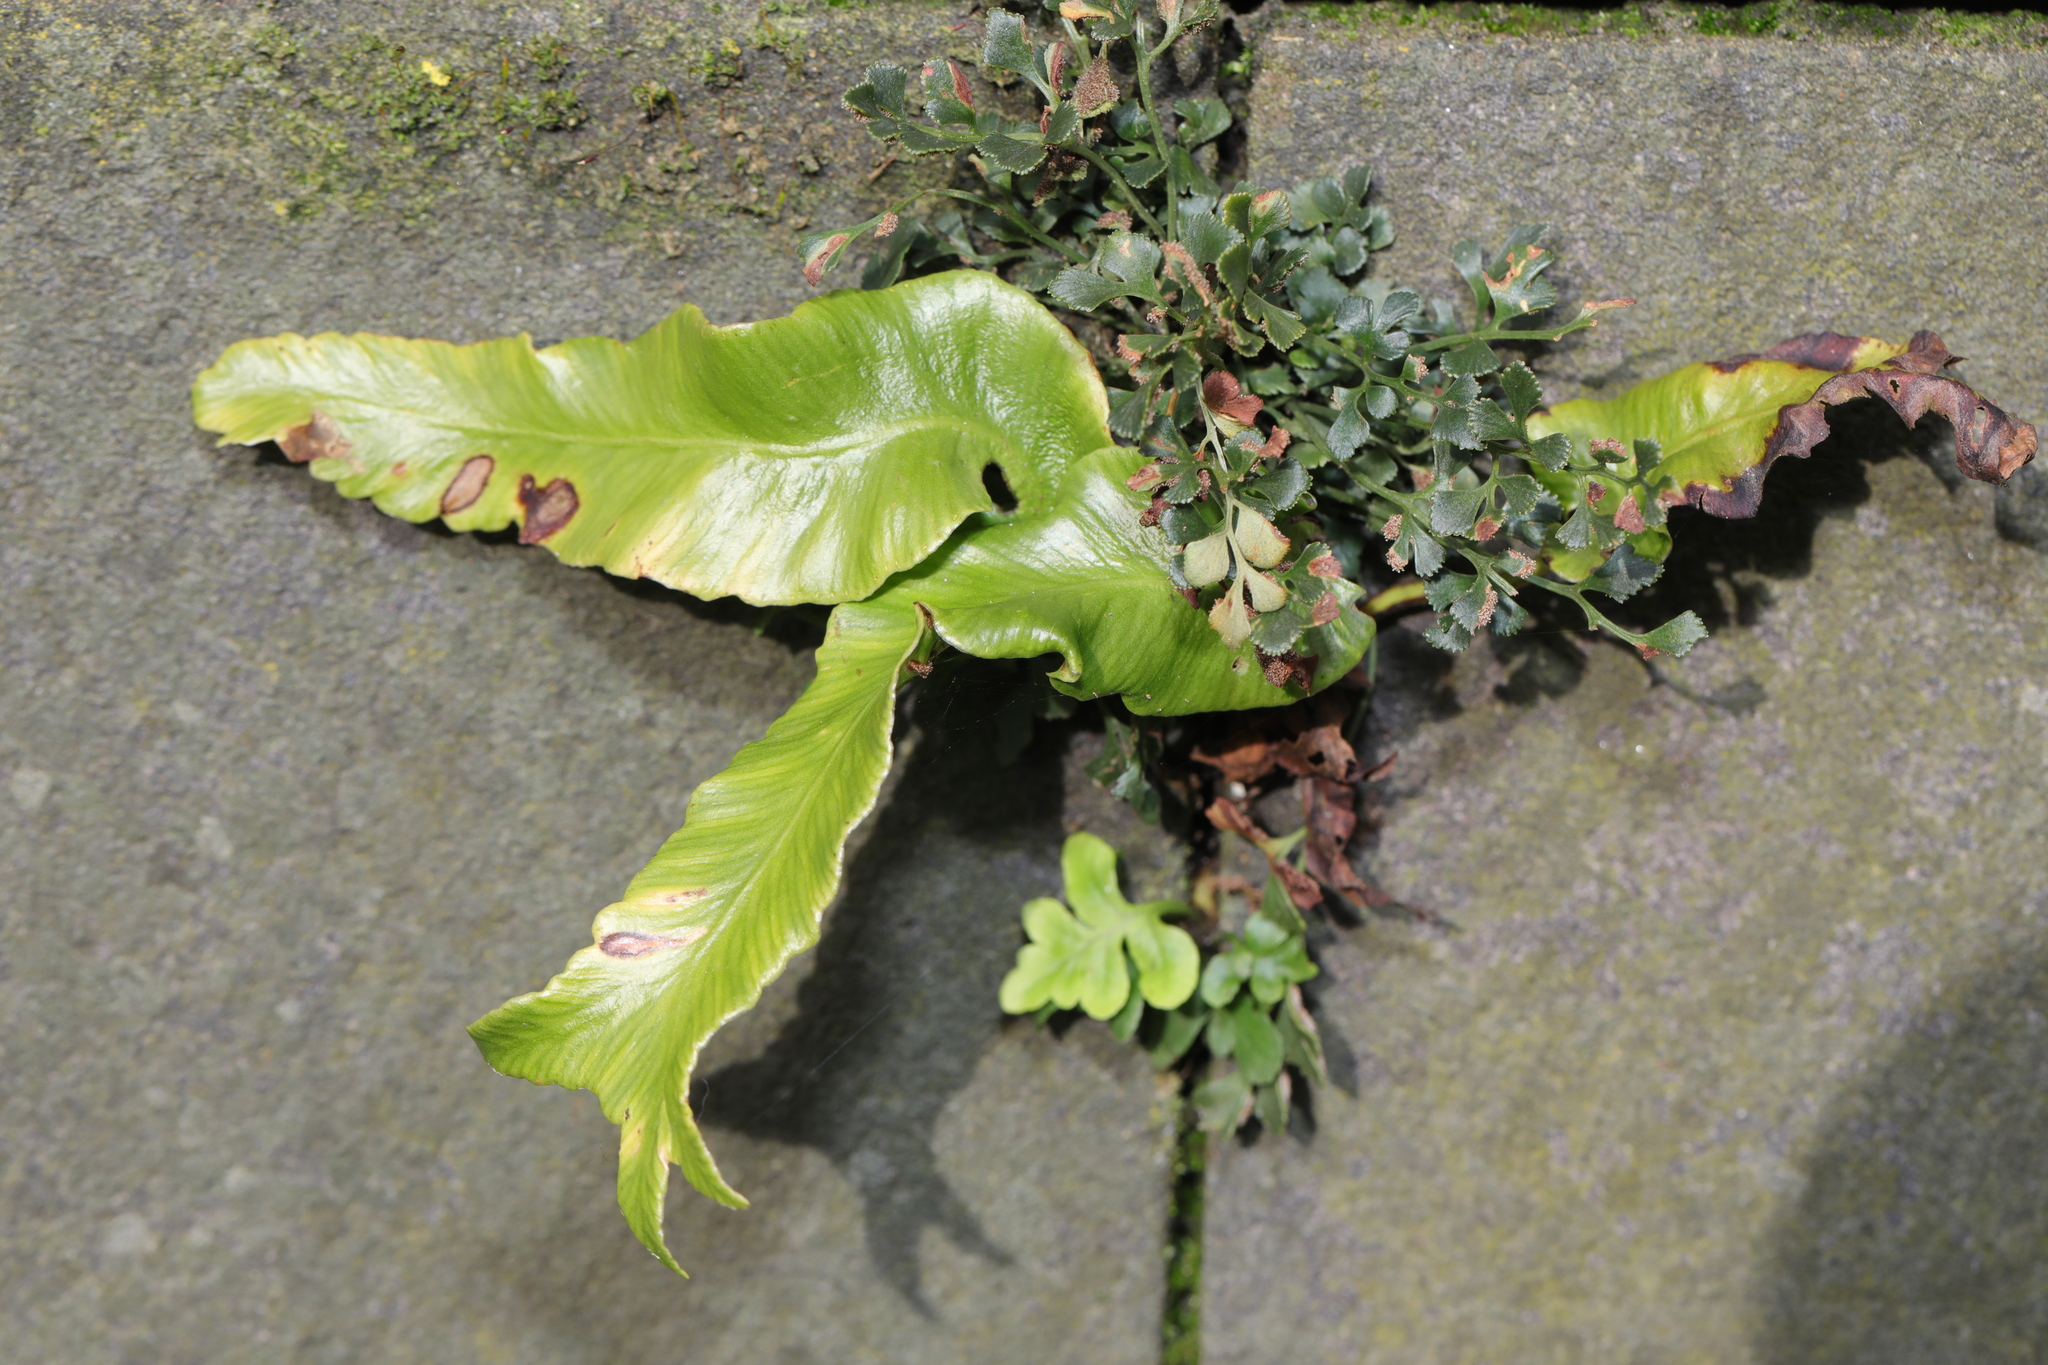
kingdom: Plantae
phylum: Tracheophyta
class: Polypodiopsida
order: Polypodiales
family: Aspleniaceae
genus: Asplenium
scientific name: Asplenium scolopendrium
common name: Hart's-tongue fern
